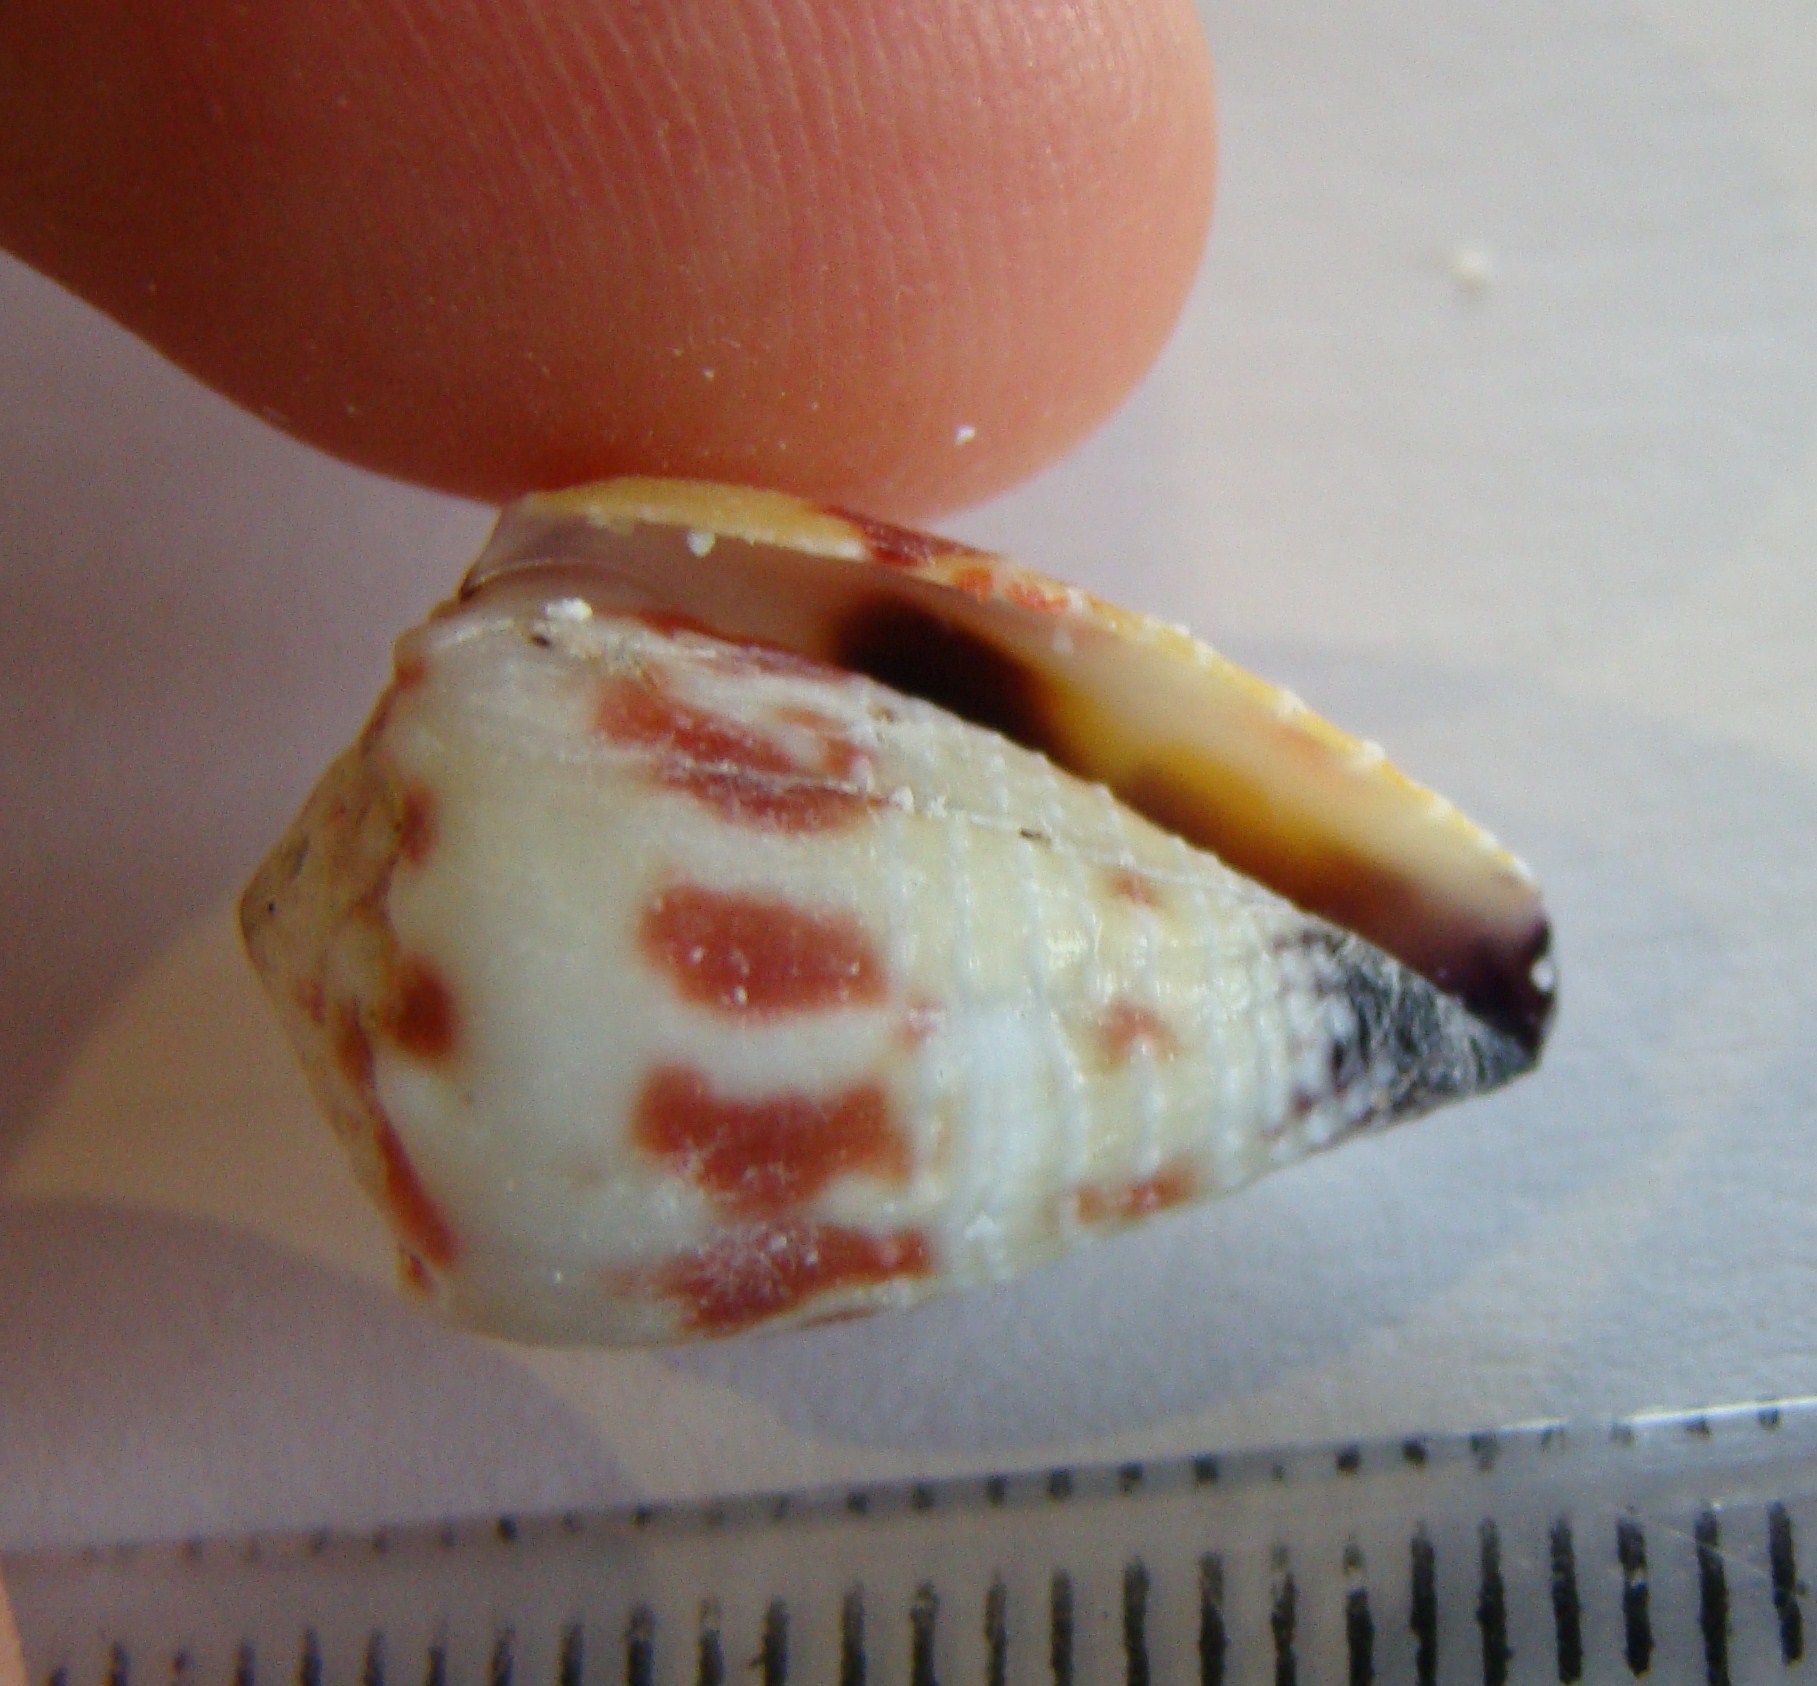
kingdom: Animalia
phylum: Mollusca
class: Gastropoda
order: Neogastropoda
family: Conidae
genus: Conus
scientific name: Conus sponsalis
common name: Sponsal cone
